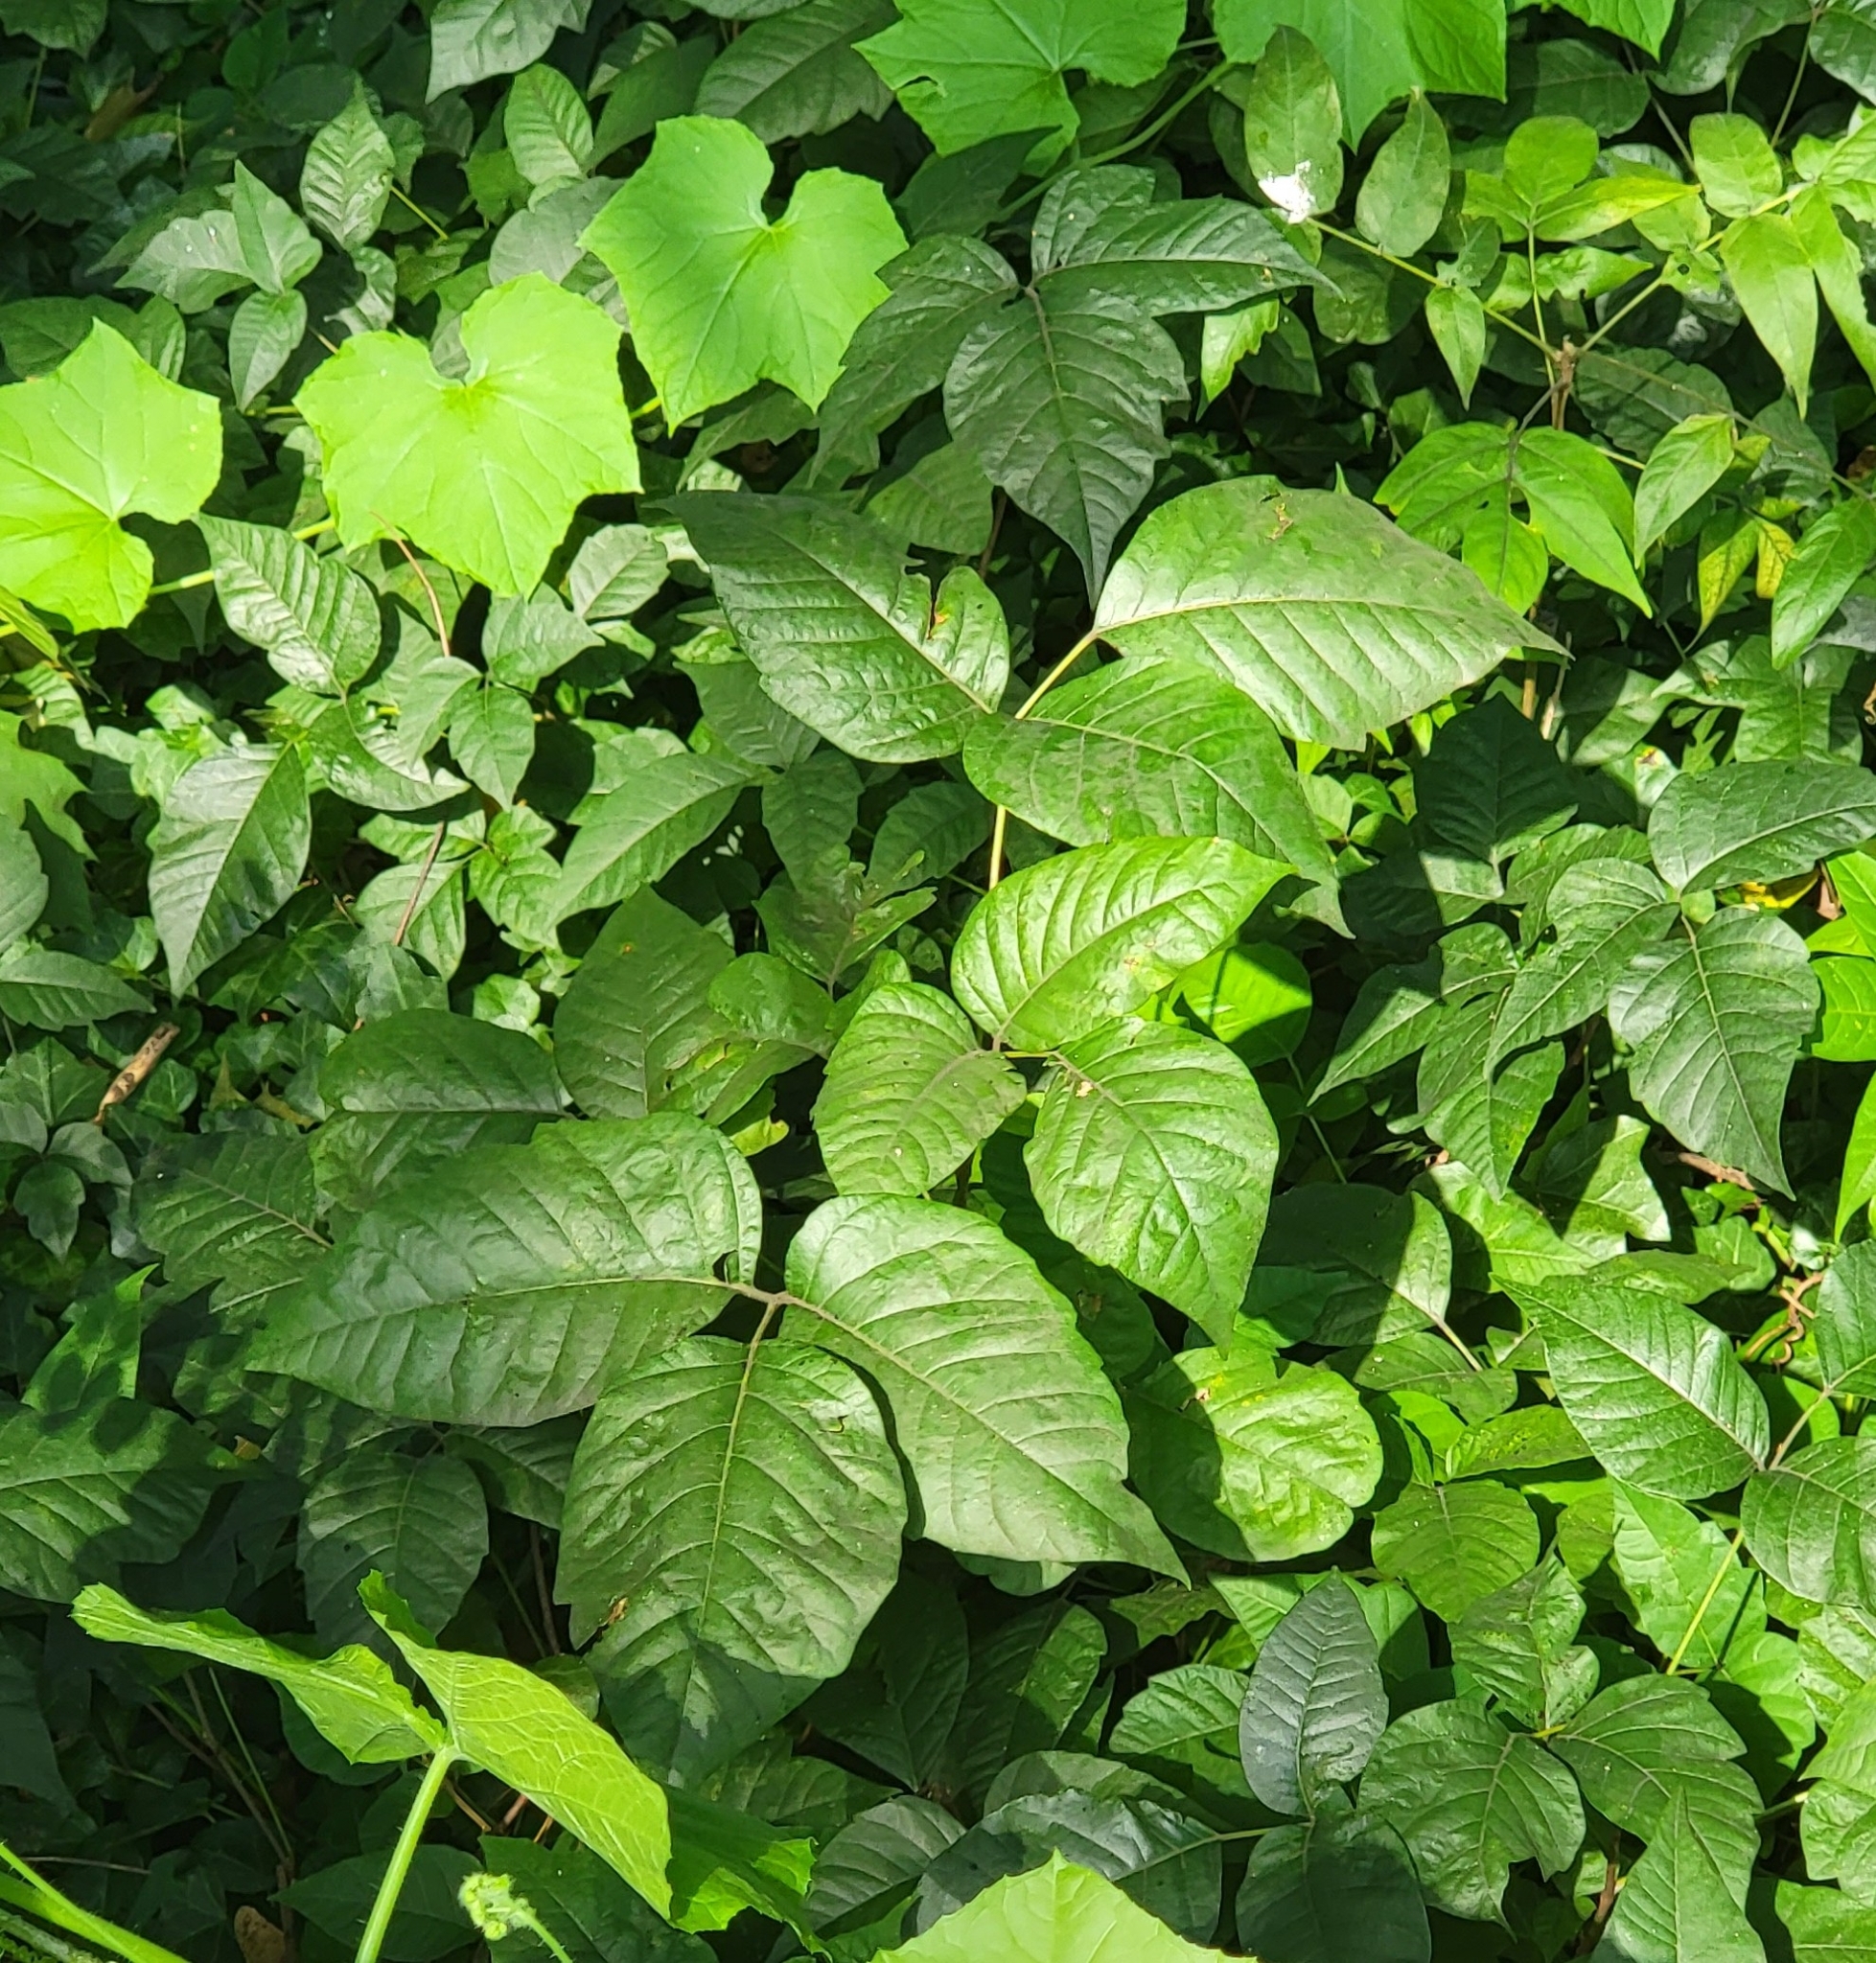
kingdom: Plantae
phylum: Tracheophyta
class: Magnoliopsida
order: Sapindales
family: Anacardiaceae
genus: Toxicodendron
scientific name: Toxicodendron radicans
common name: Poison ivy
